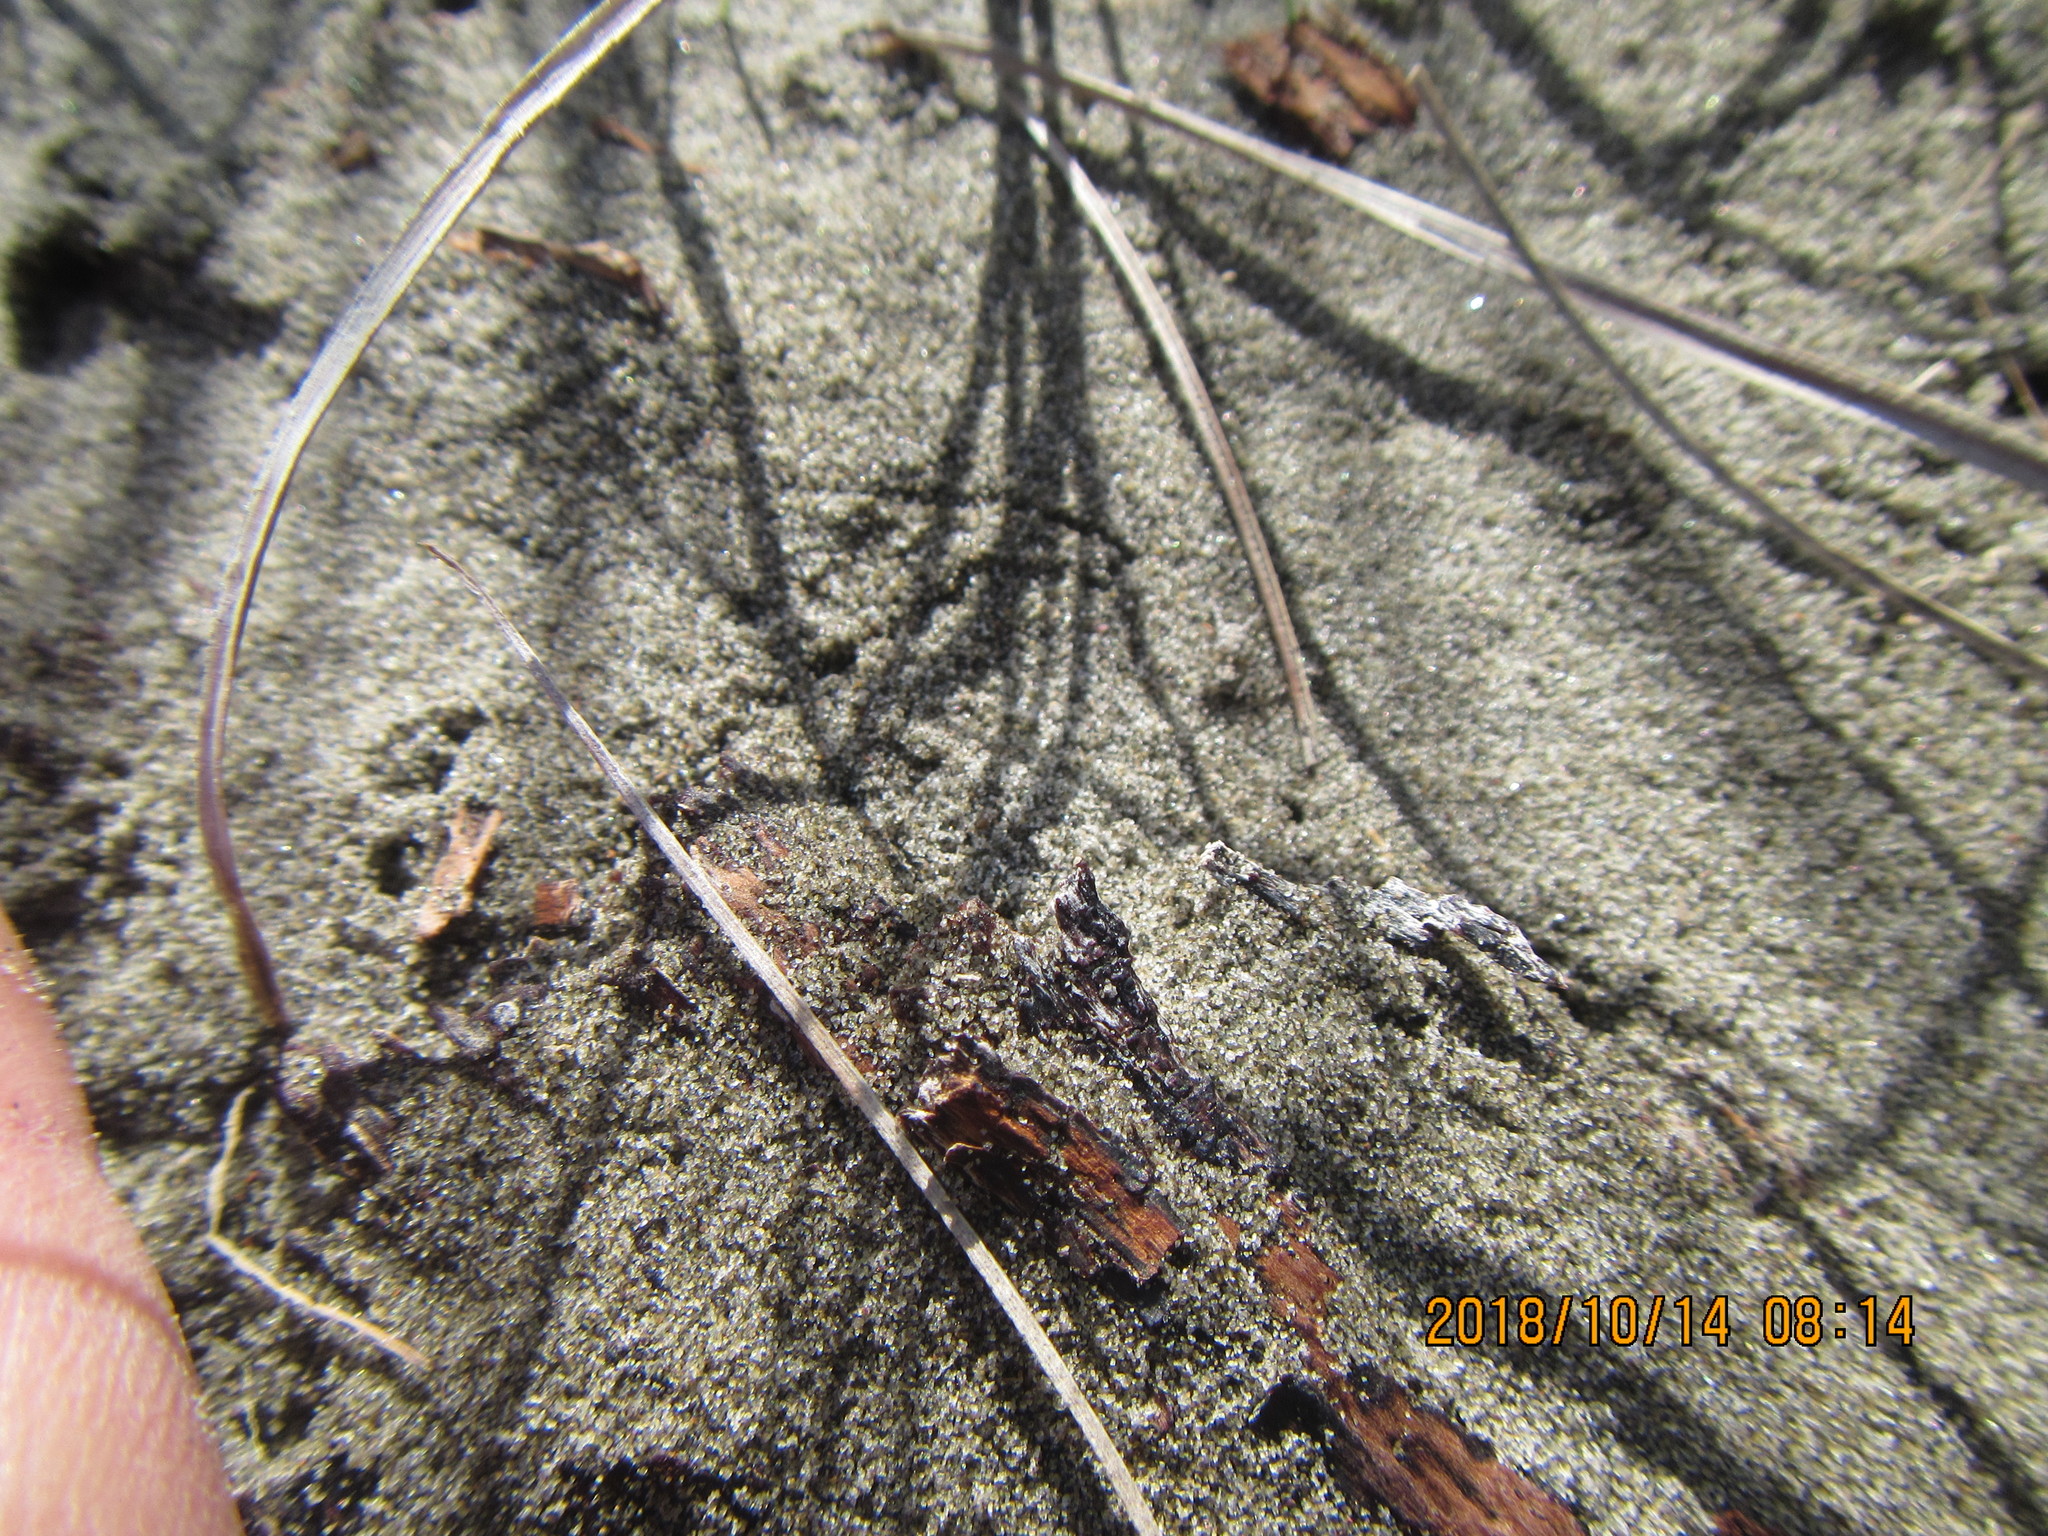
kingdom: Animalia
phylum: Arthropoda
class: Arachnida
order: Araneae
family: Lycosidae
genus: Anoteropsis
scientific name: Anoteropsis litoralis
